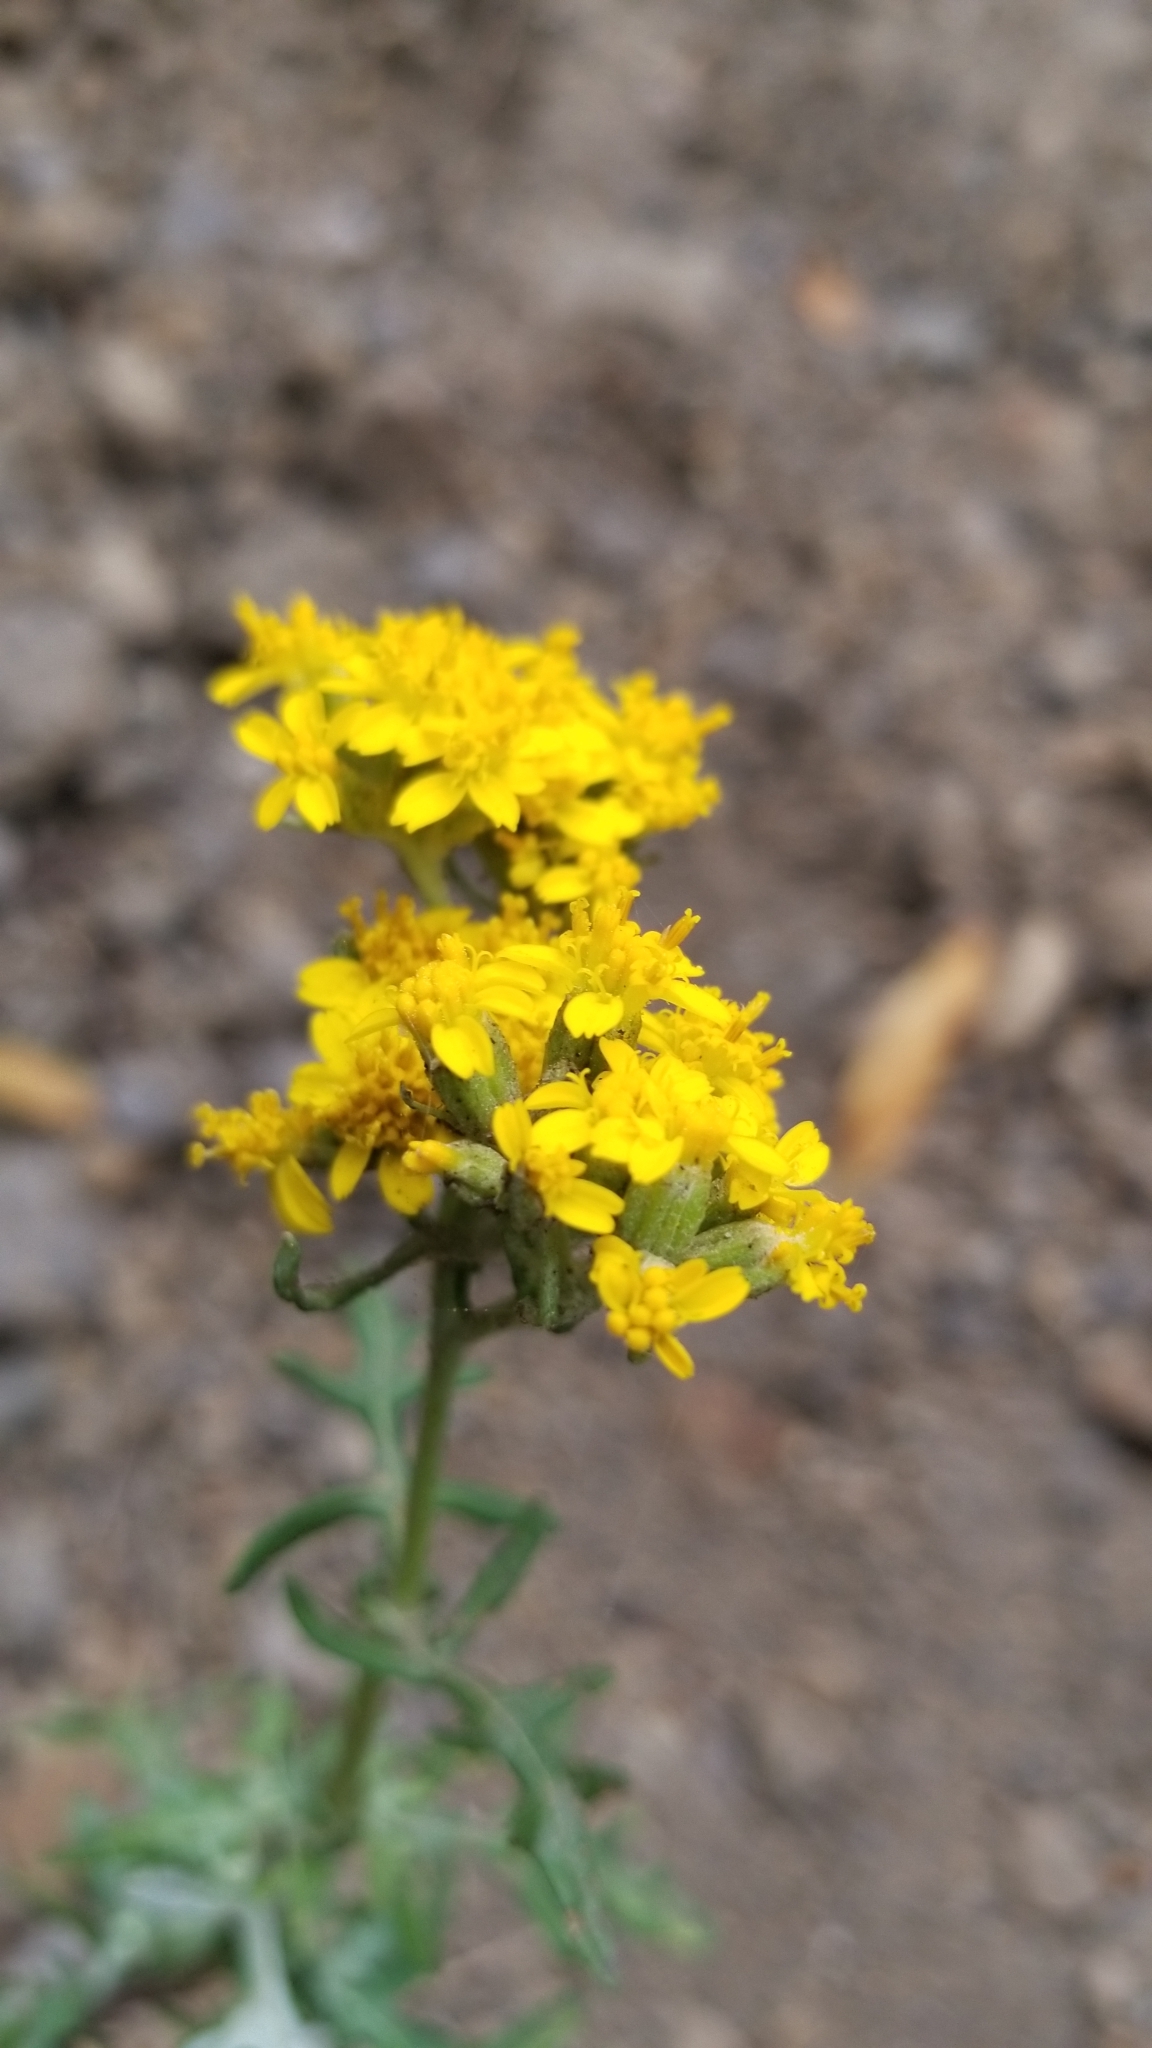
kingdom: Plantae
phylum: Tracheophyta
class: Magnoliopsida
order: Asterales
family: Asteraceae
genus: Eriophyllum
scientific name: Eriophyllum staechadifolium
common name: Lizardtail
